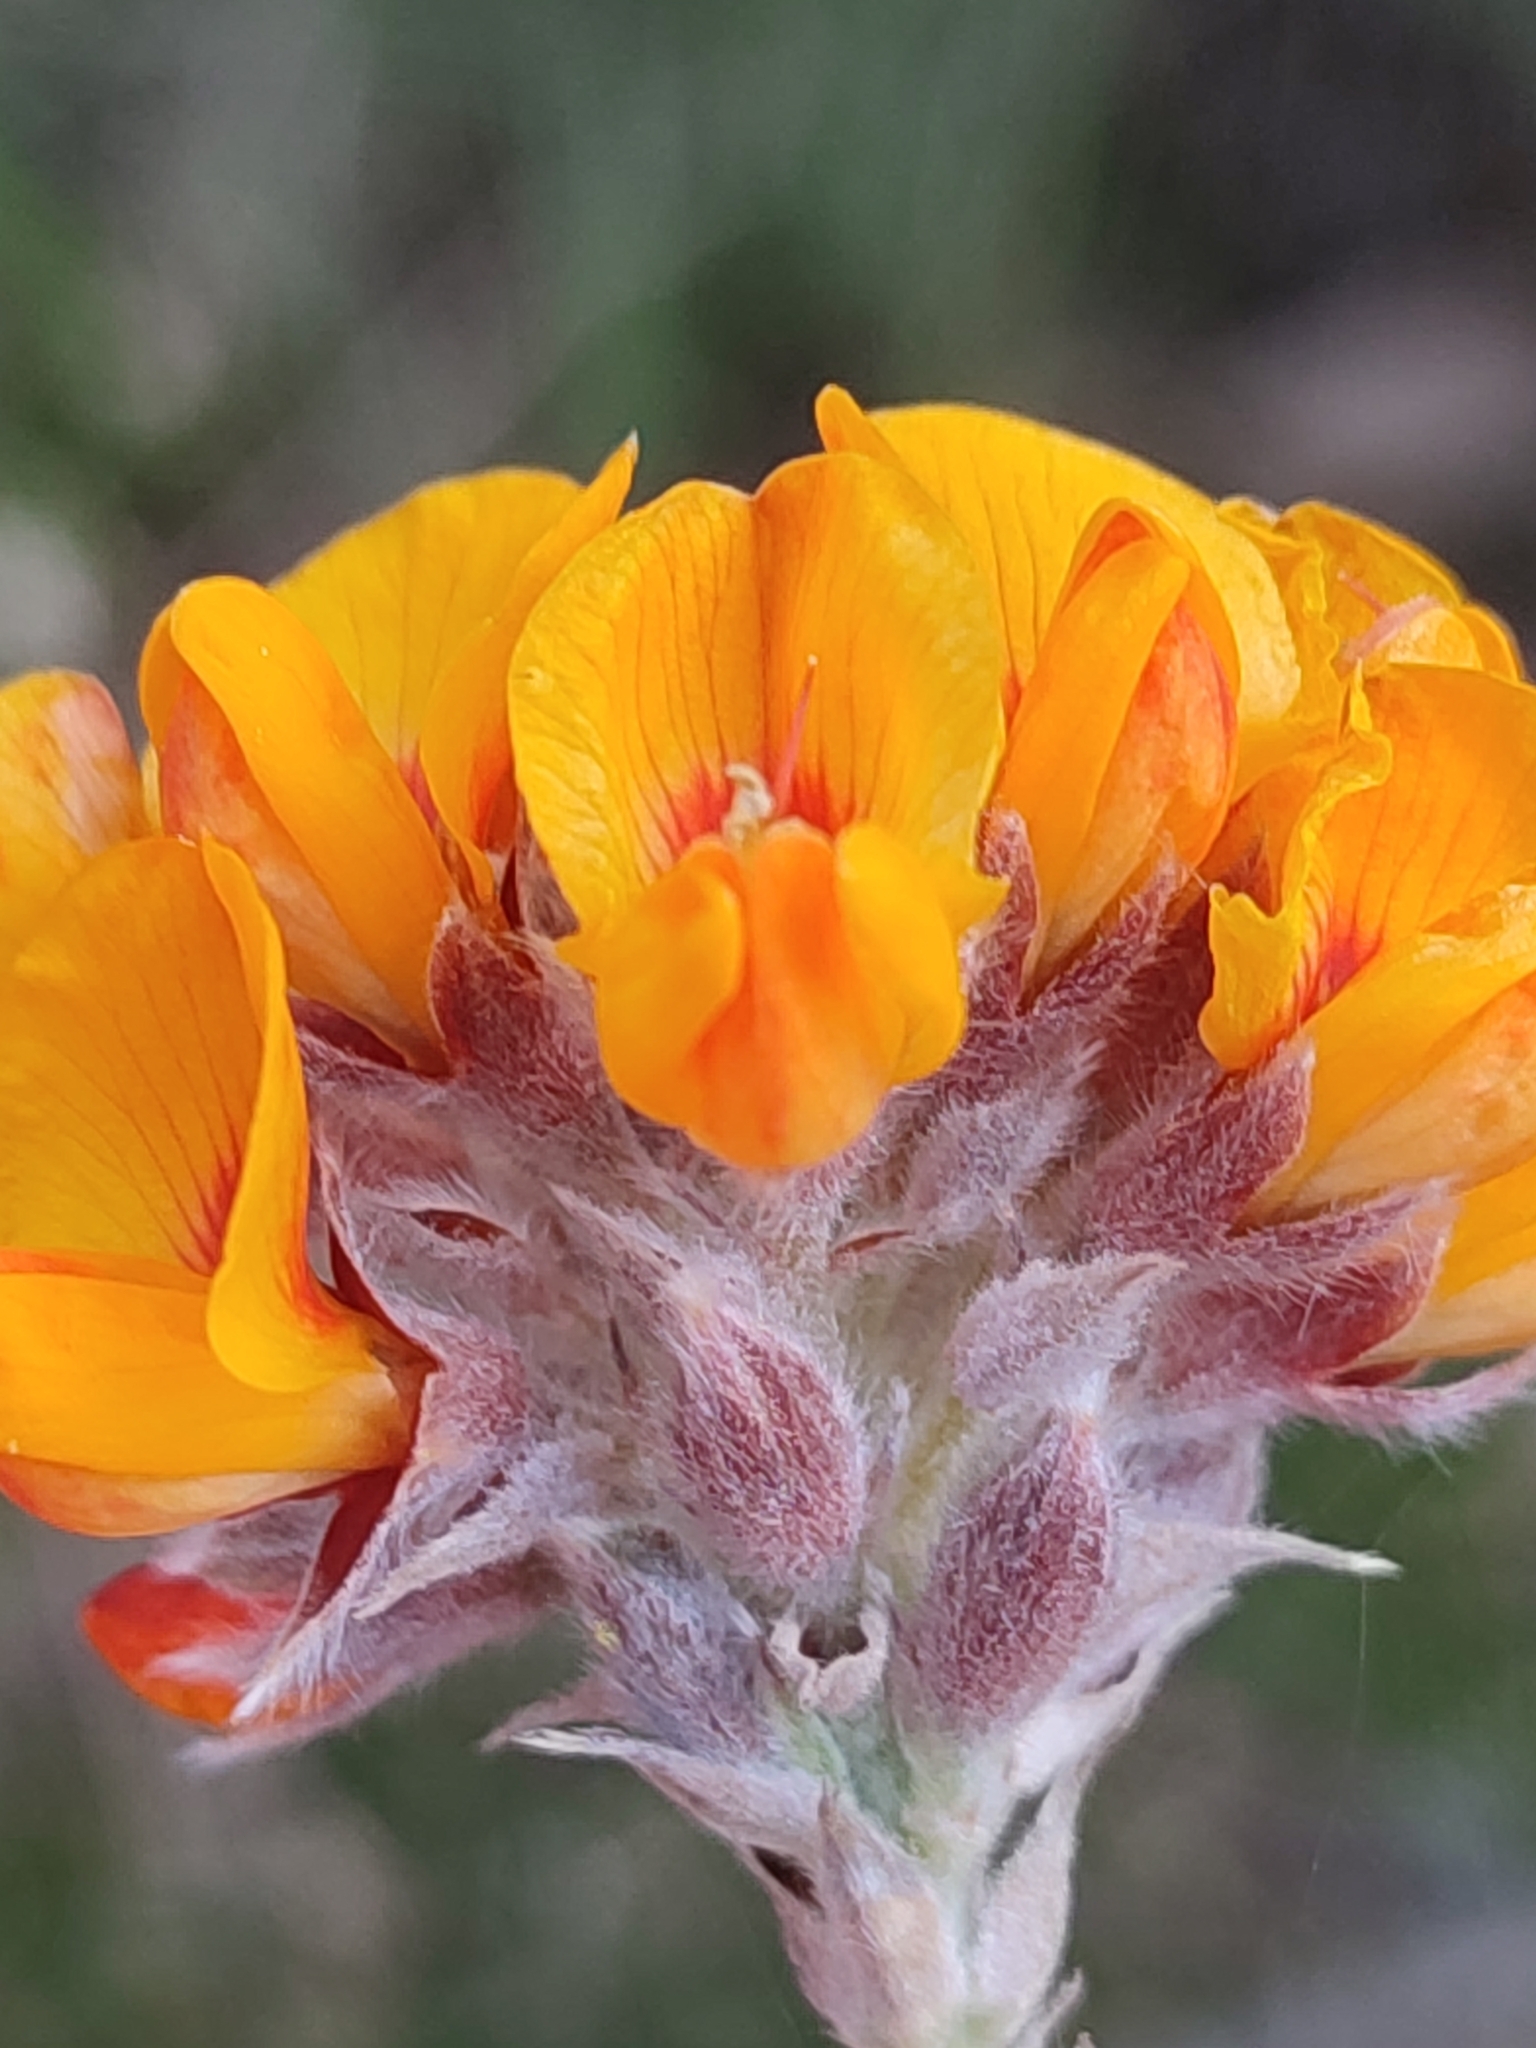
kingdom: Plantae
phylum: Tracheophyta
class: Magnoliopsida
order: Fabales
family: Fabaceae
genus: Oxylobium
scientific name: Oxylobium ellipticum
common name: Golden shaggy-pea
